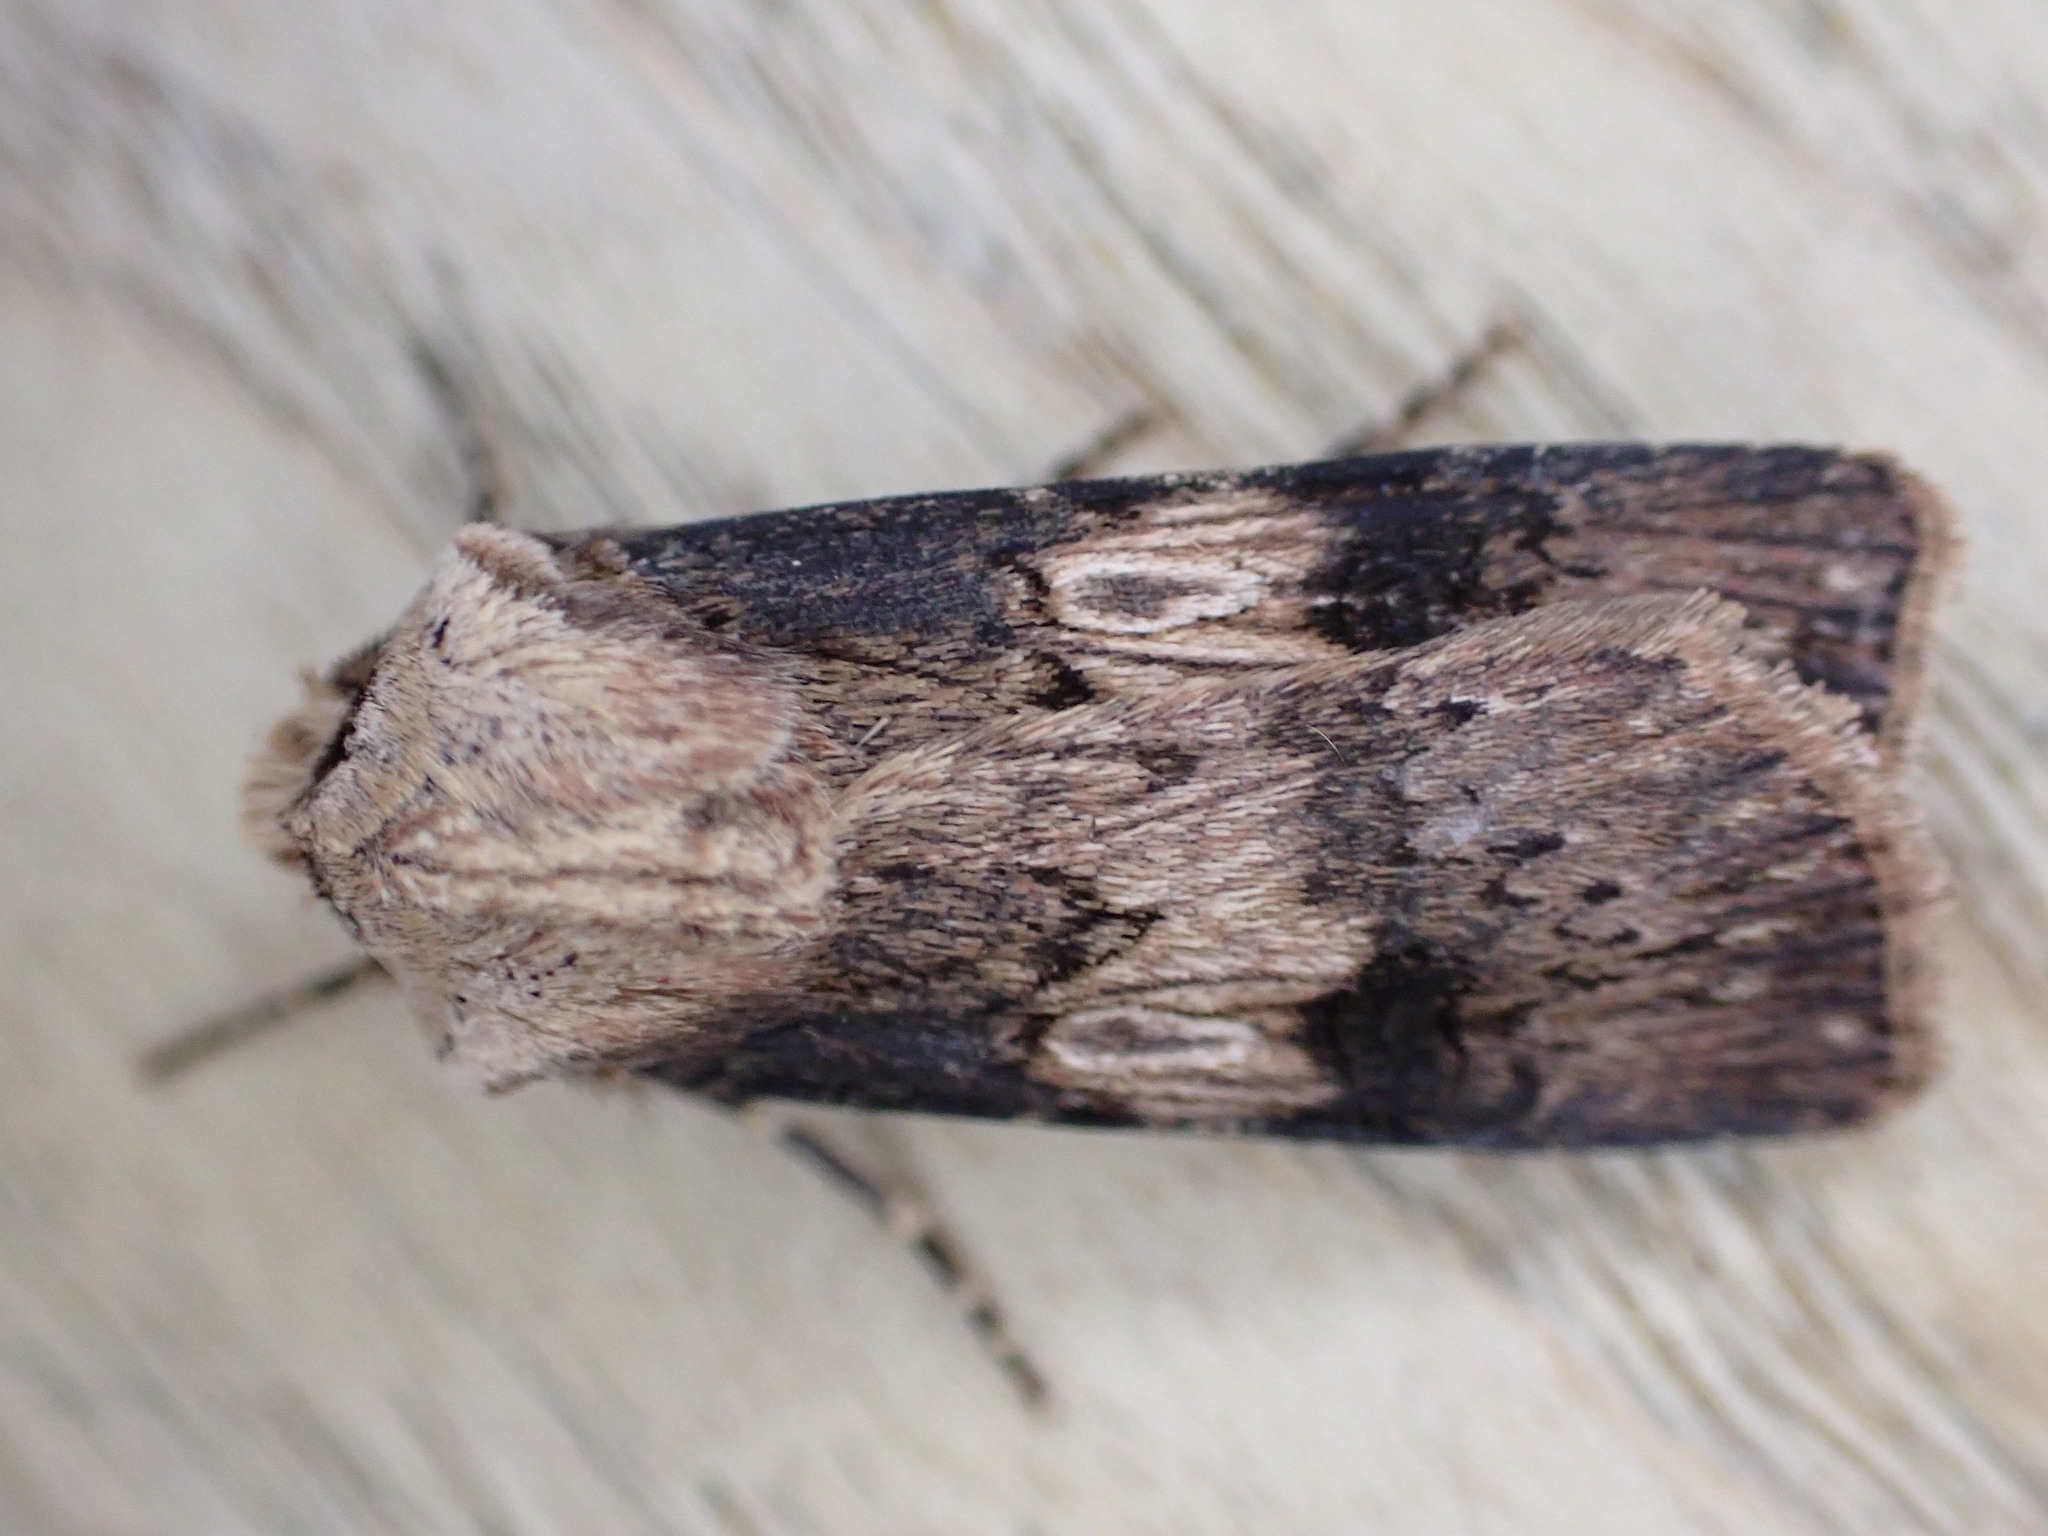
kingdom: Animalia
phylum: Arthropoda
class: Insecta
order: Lepidoptera
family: Noctuidae
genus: Agrotis
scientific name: Agrotis puta
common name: Shuttle-shaped dart
